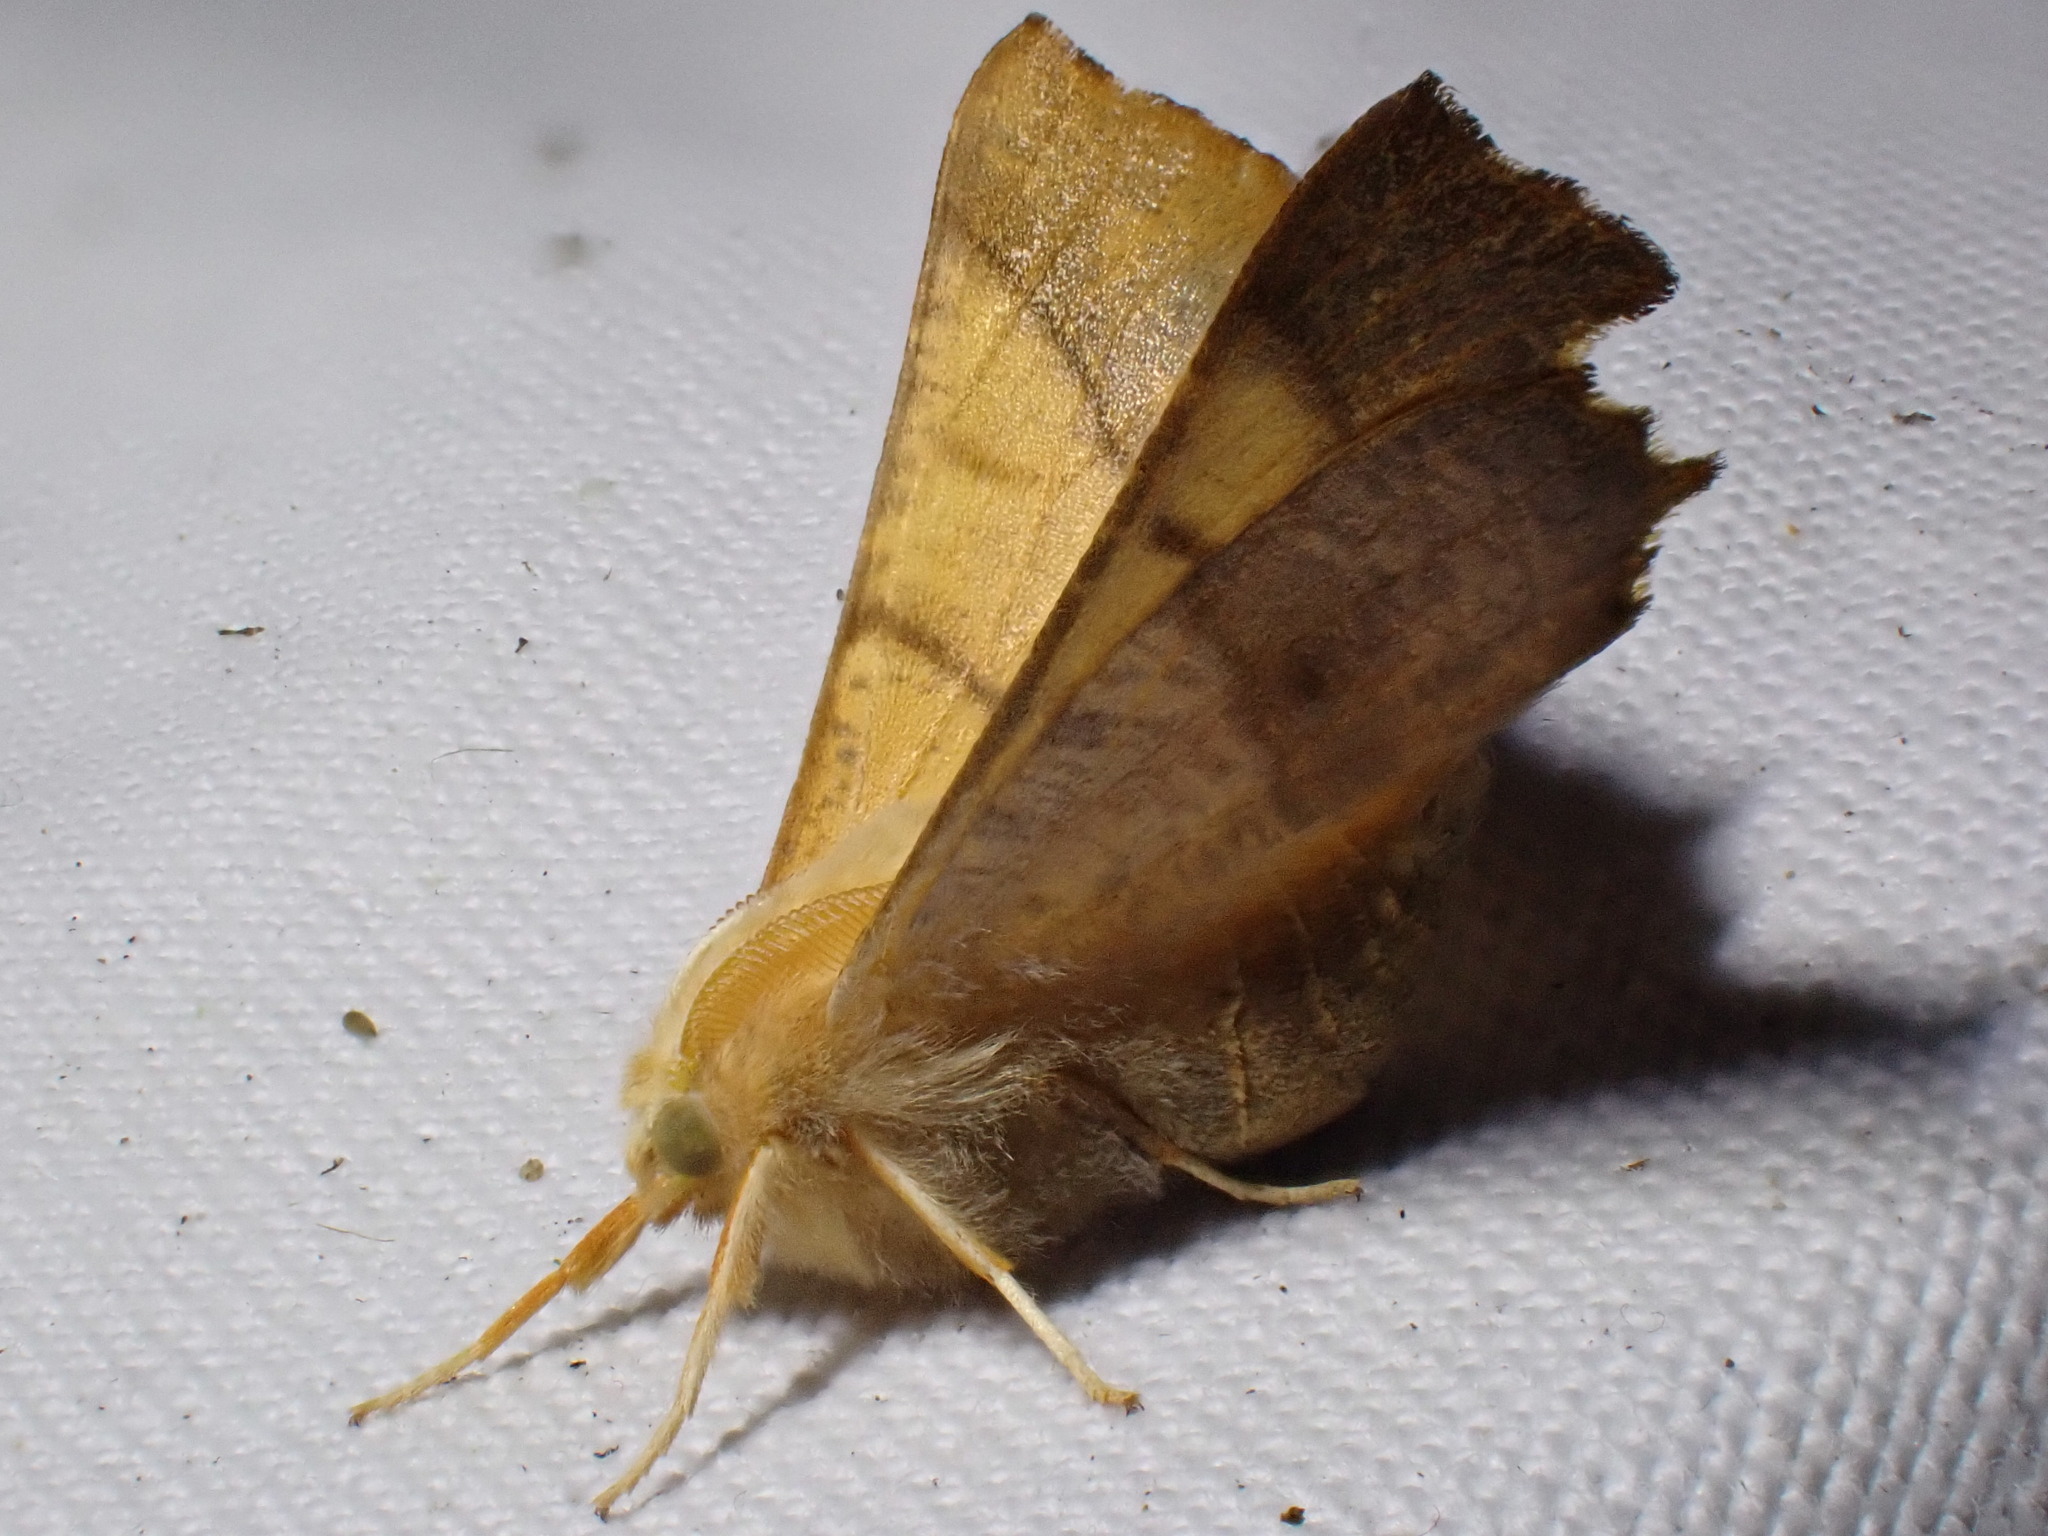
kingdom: Animalia
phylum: Arthropoda
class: Insecta
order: Lepidoptera
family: Geometridae
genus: Ennomos
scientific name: Ennomos fuscantaria
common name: Dusky thorn
